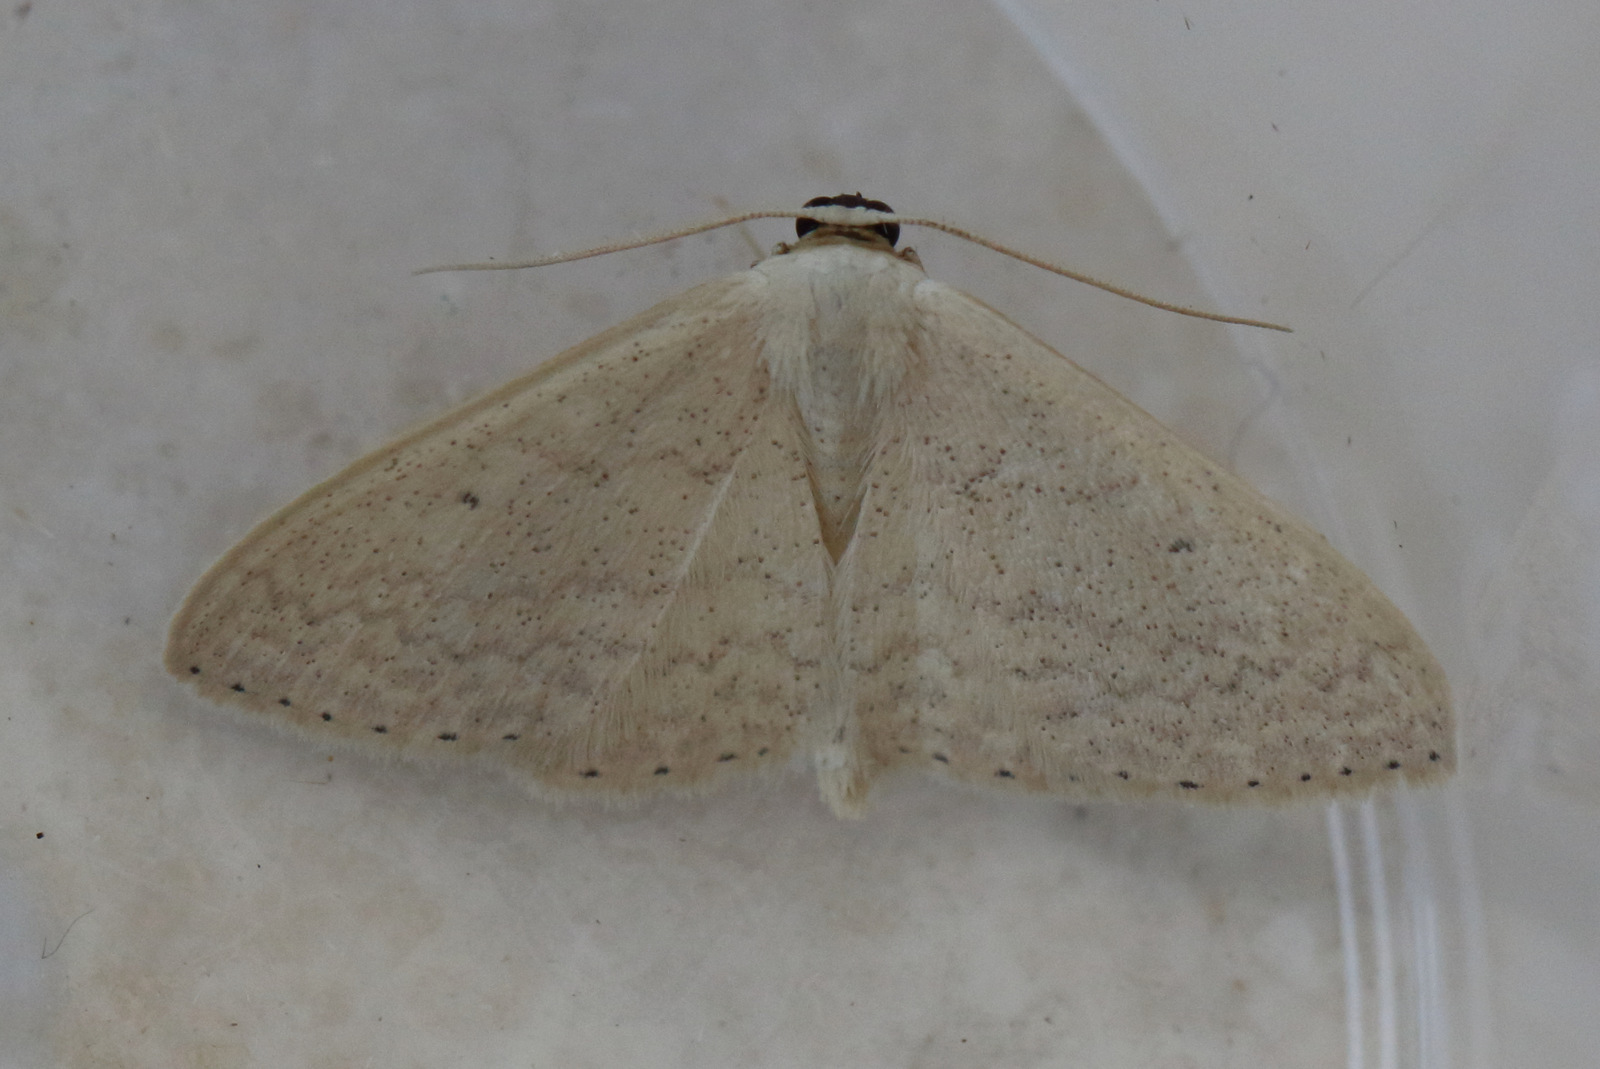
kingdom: Animalia
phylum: Arthropoda
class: Insecta
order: Lepidoptera
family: Geometridae
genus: Scopula
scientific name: Scopula optivata
